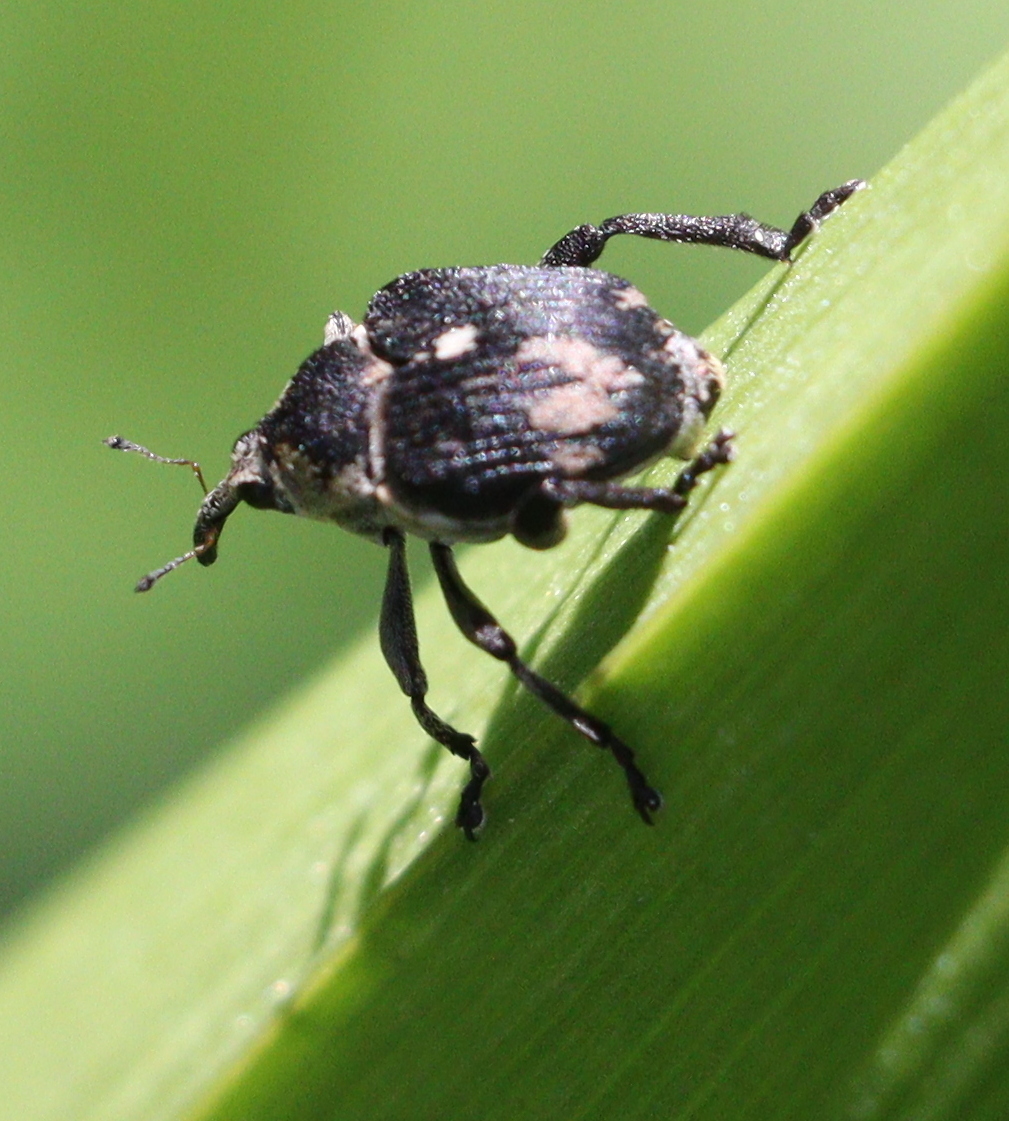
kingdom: Animalia
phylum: Arthropoda
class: Insecta
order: Coleoptera
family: Curculionidae
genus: Mononychus
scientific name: Mononychus punctumalbum
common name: Iris weevil
